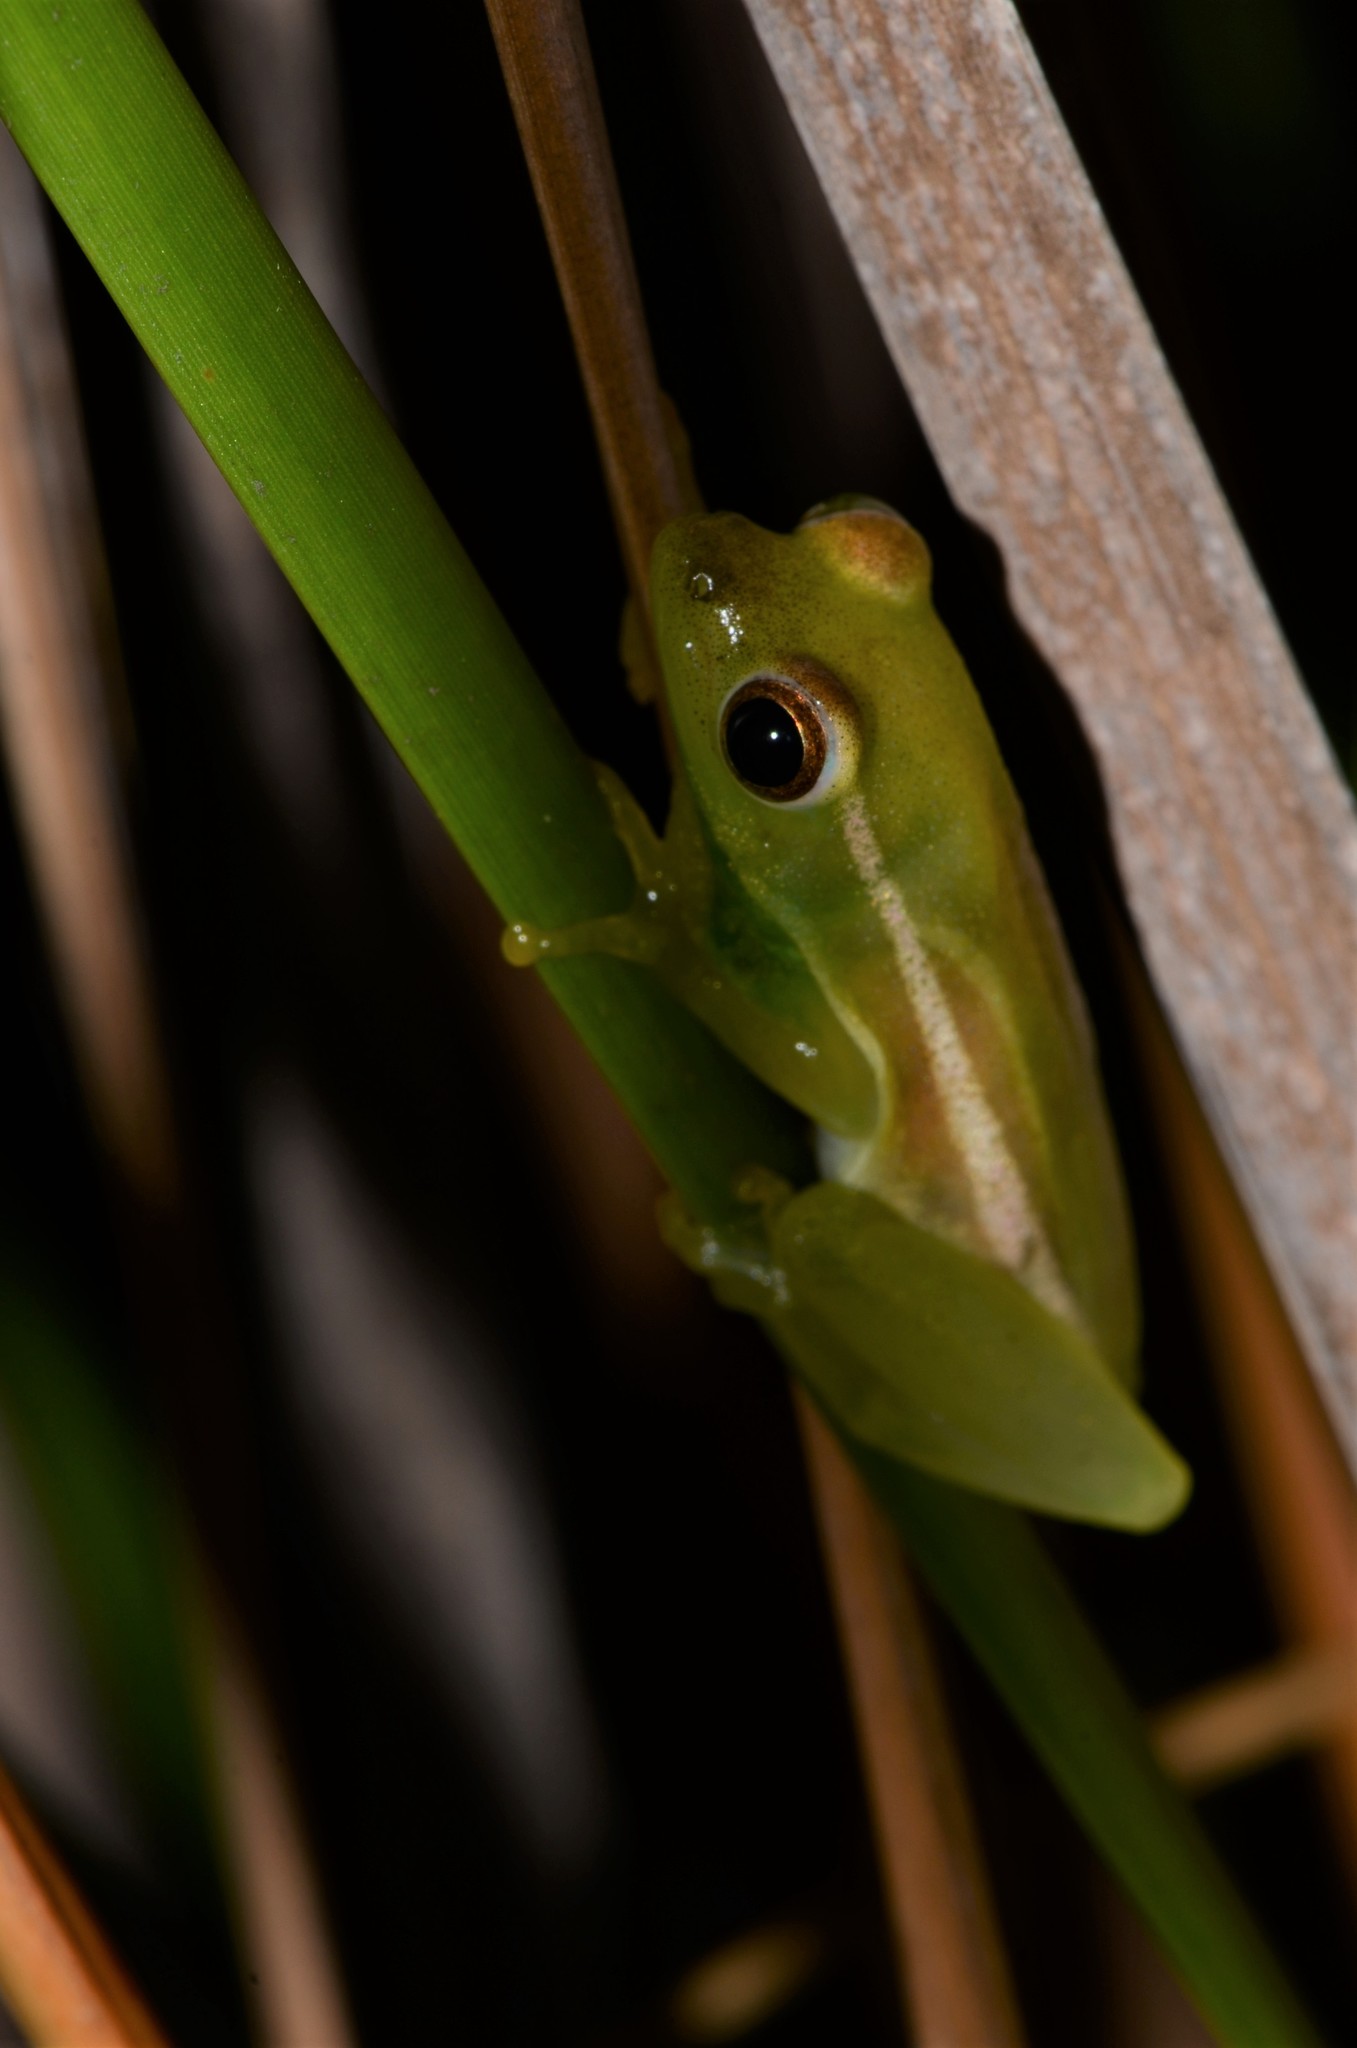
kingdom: Animalia
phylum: Chordata
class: Amphibia
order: Anura
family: Hyperoliidae
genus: Hyperolius
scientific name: Hyperolius microps
